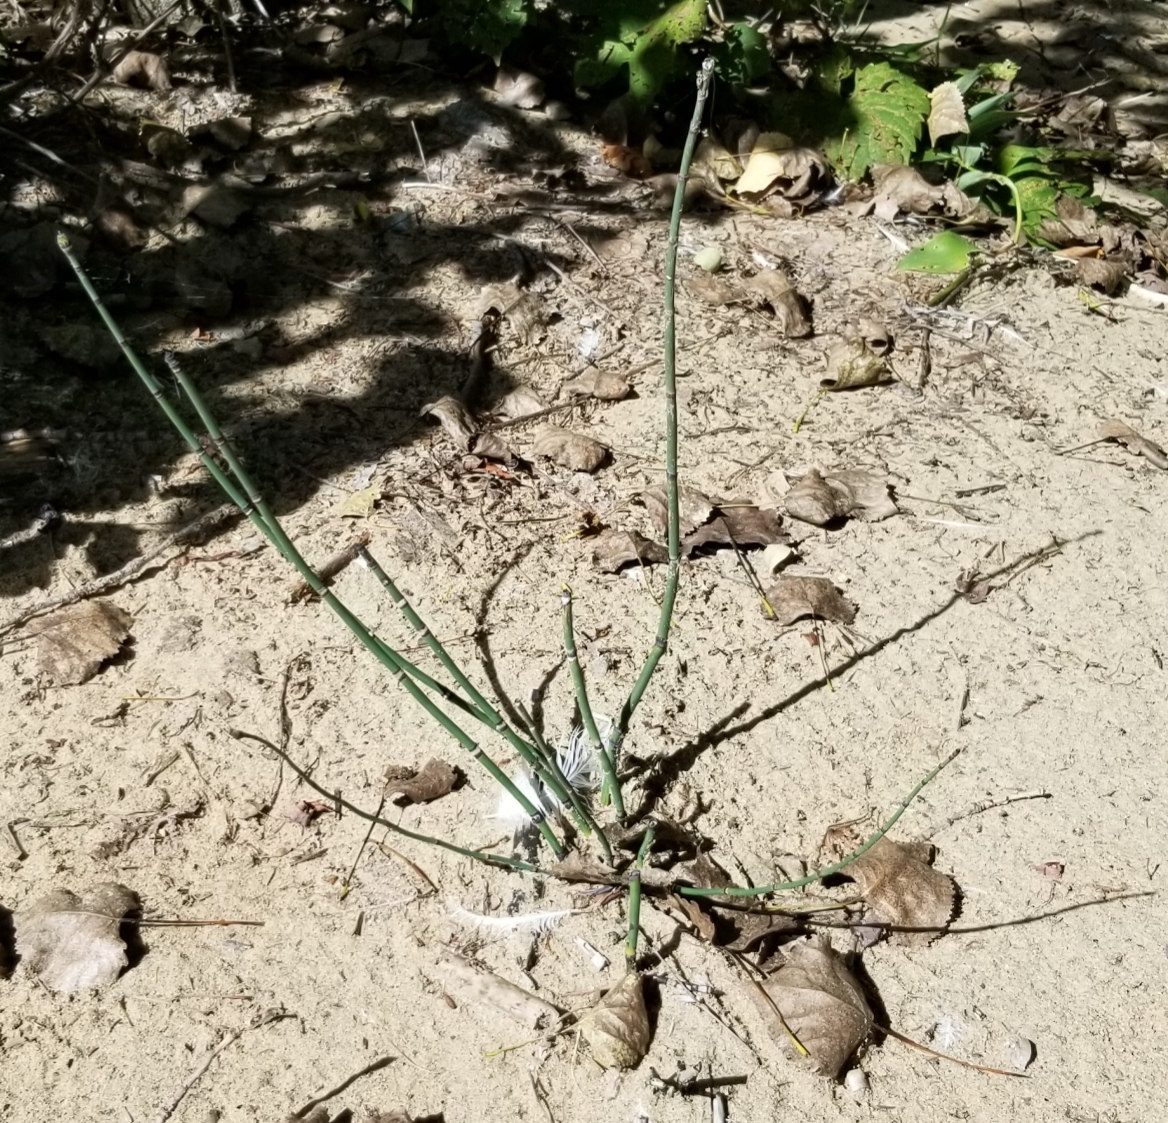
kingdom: Plantae
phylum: Tracheophyta
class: Polypodiopsida
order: Equisetales
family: Equisetaceae
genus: Equisetum
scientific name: Equisetum hyemale
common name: Rough horsetail
